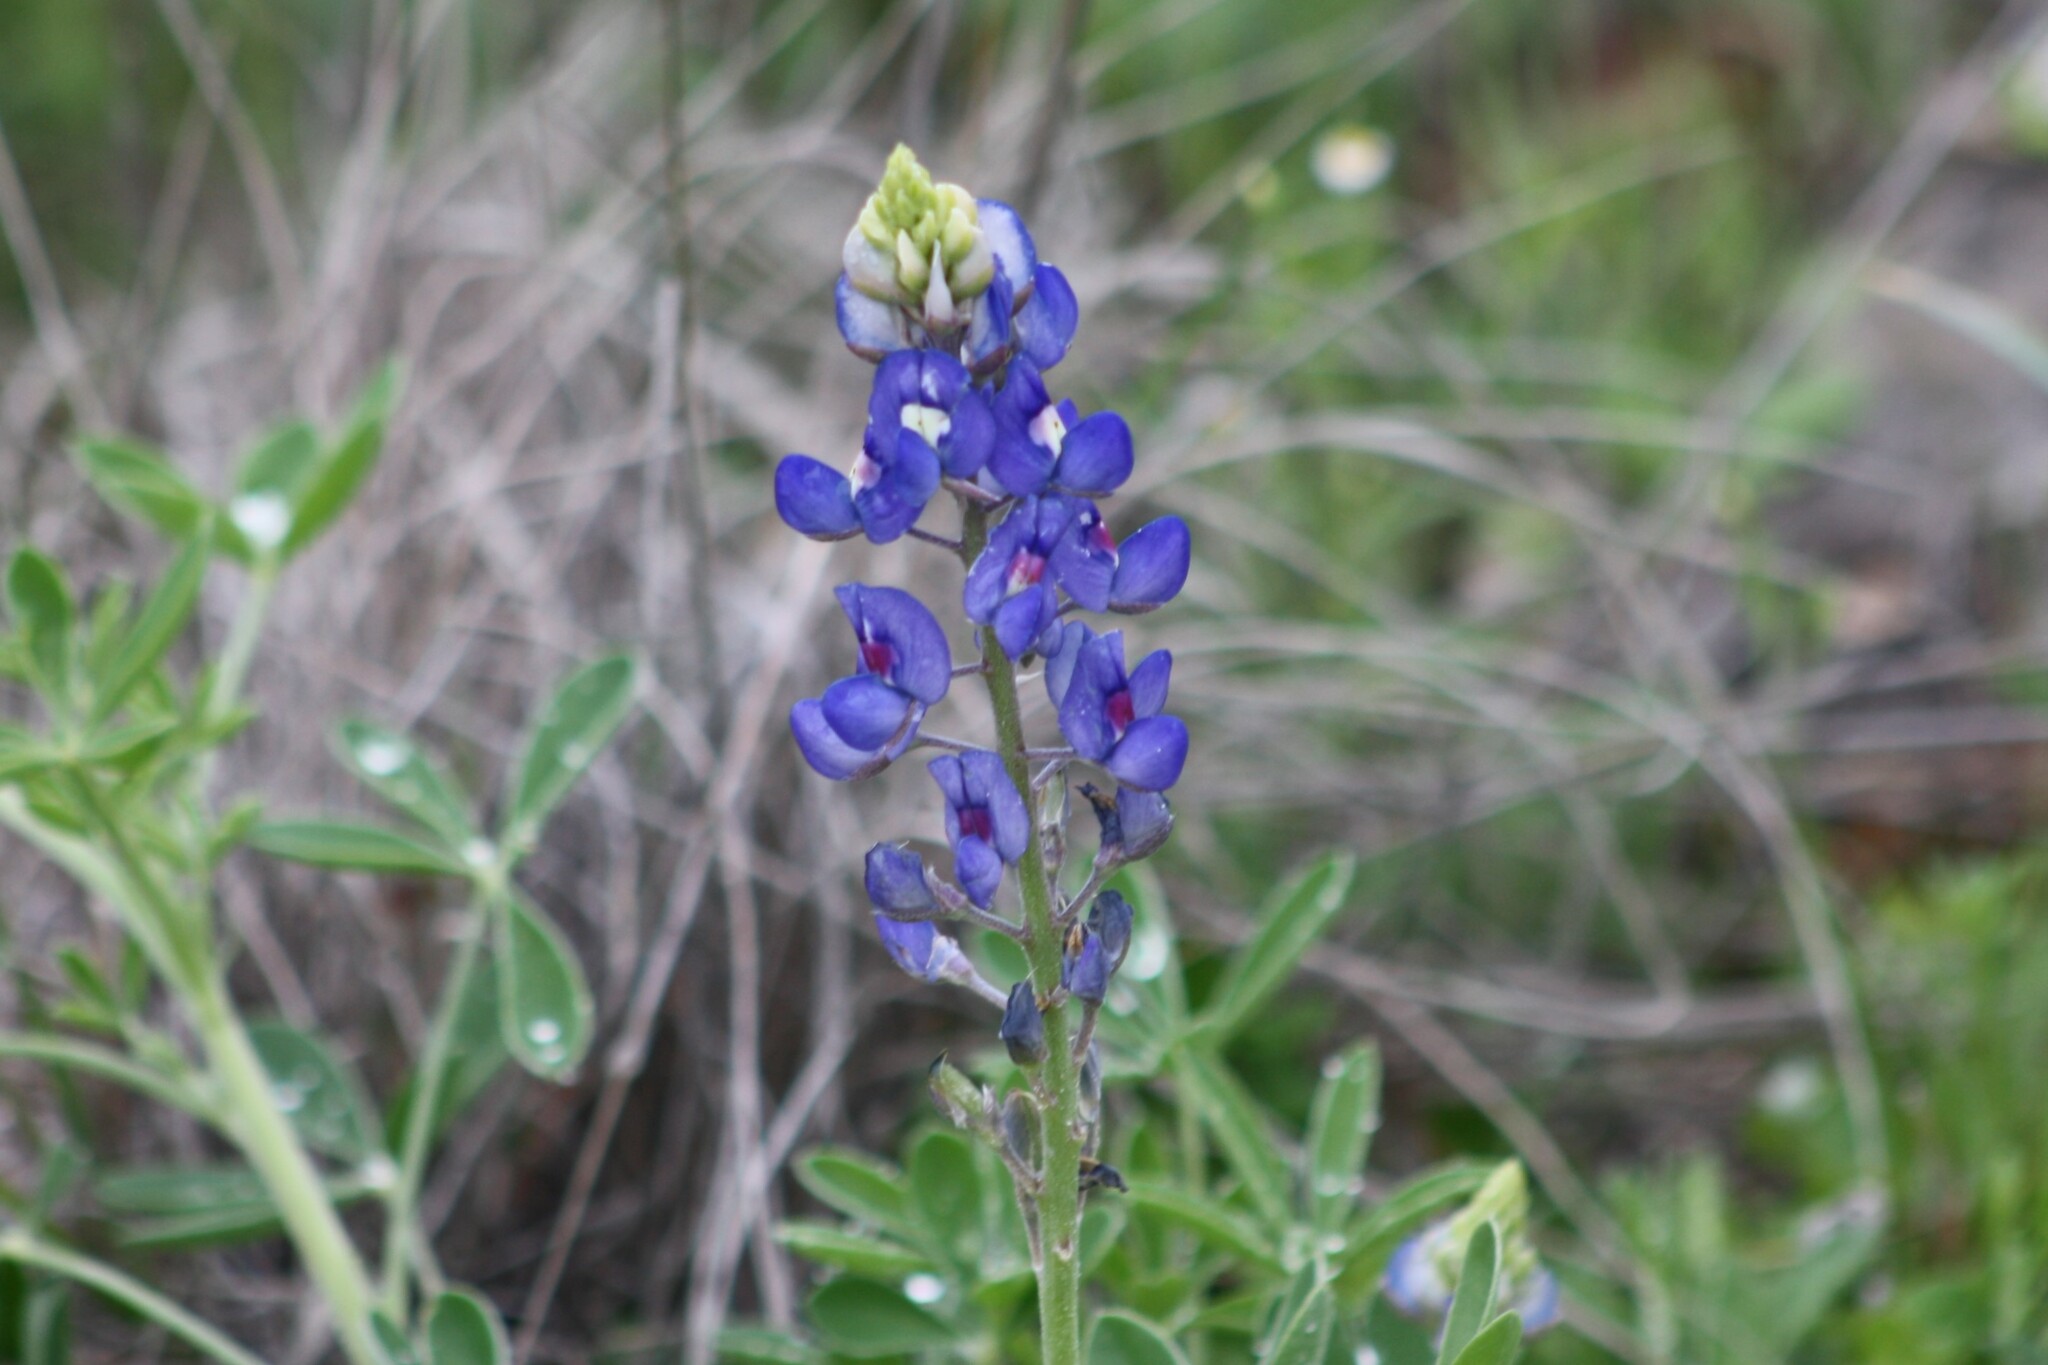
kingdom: Plantae
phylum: Tracheophyta
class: Magnoliopsida
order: Fabales
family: Fabaceae
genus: Lupinus
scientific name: Lupinus texensis
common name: Texas bluebonnet
